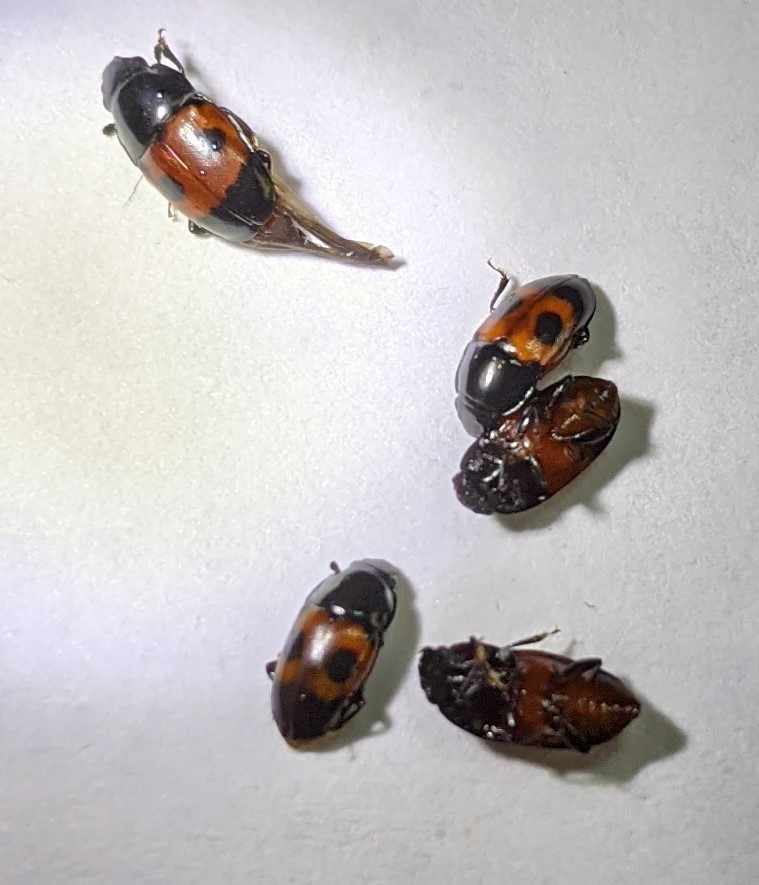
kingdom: Animalia
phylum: Arthropoda
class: Insecta
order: Coleoptera
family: Nitidulidae
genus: Glischrochilus
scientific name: Glischrochilus sanguinolentus
